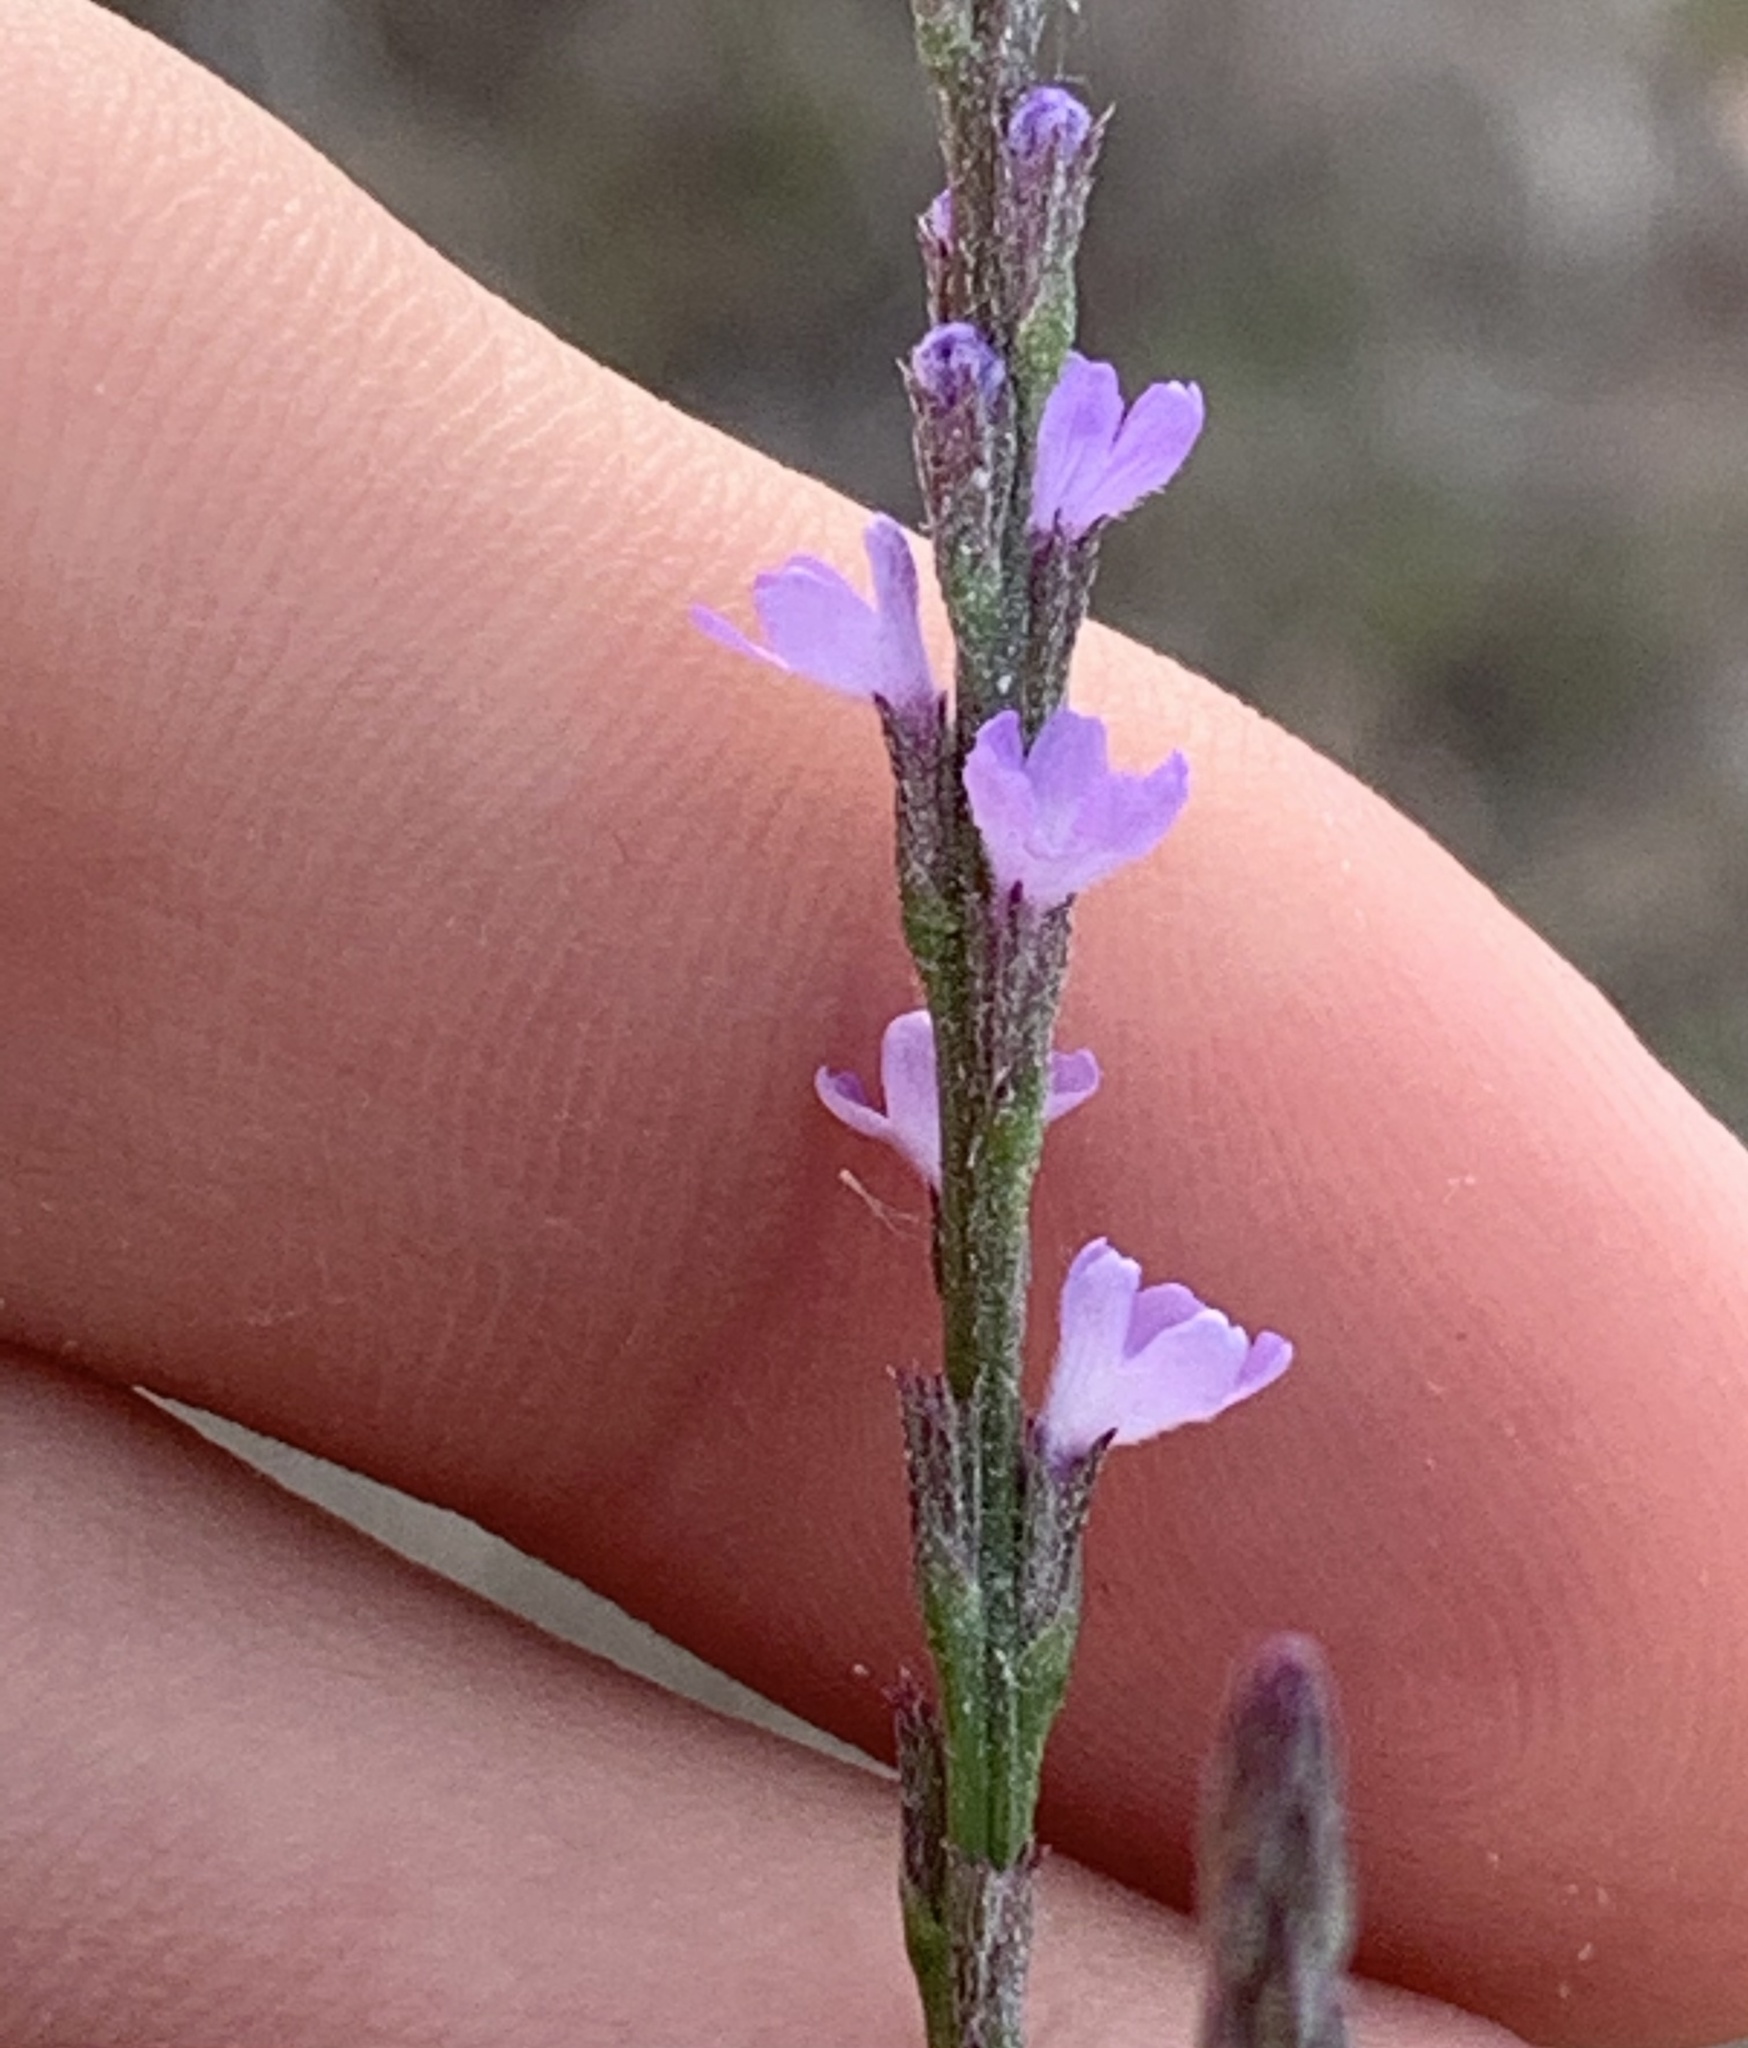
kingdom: Plantae
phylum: Tracheophyta
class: Magnoliopsida
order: Lamiales
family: Verbenaceae
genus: Verbena
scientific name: Verbena halei
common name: Texas vervain
